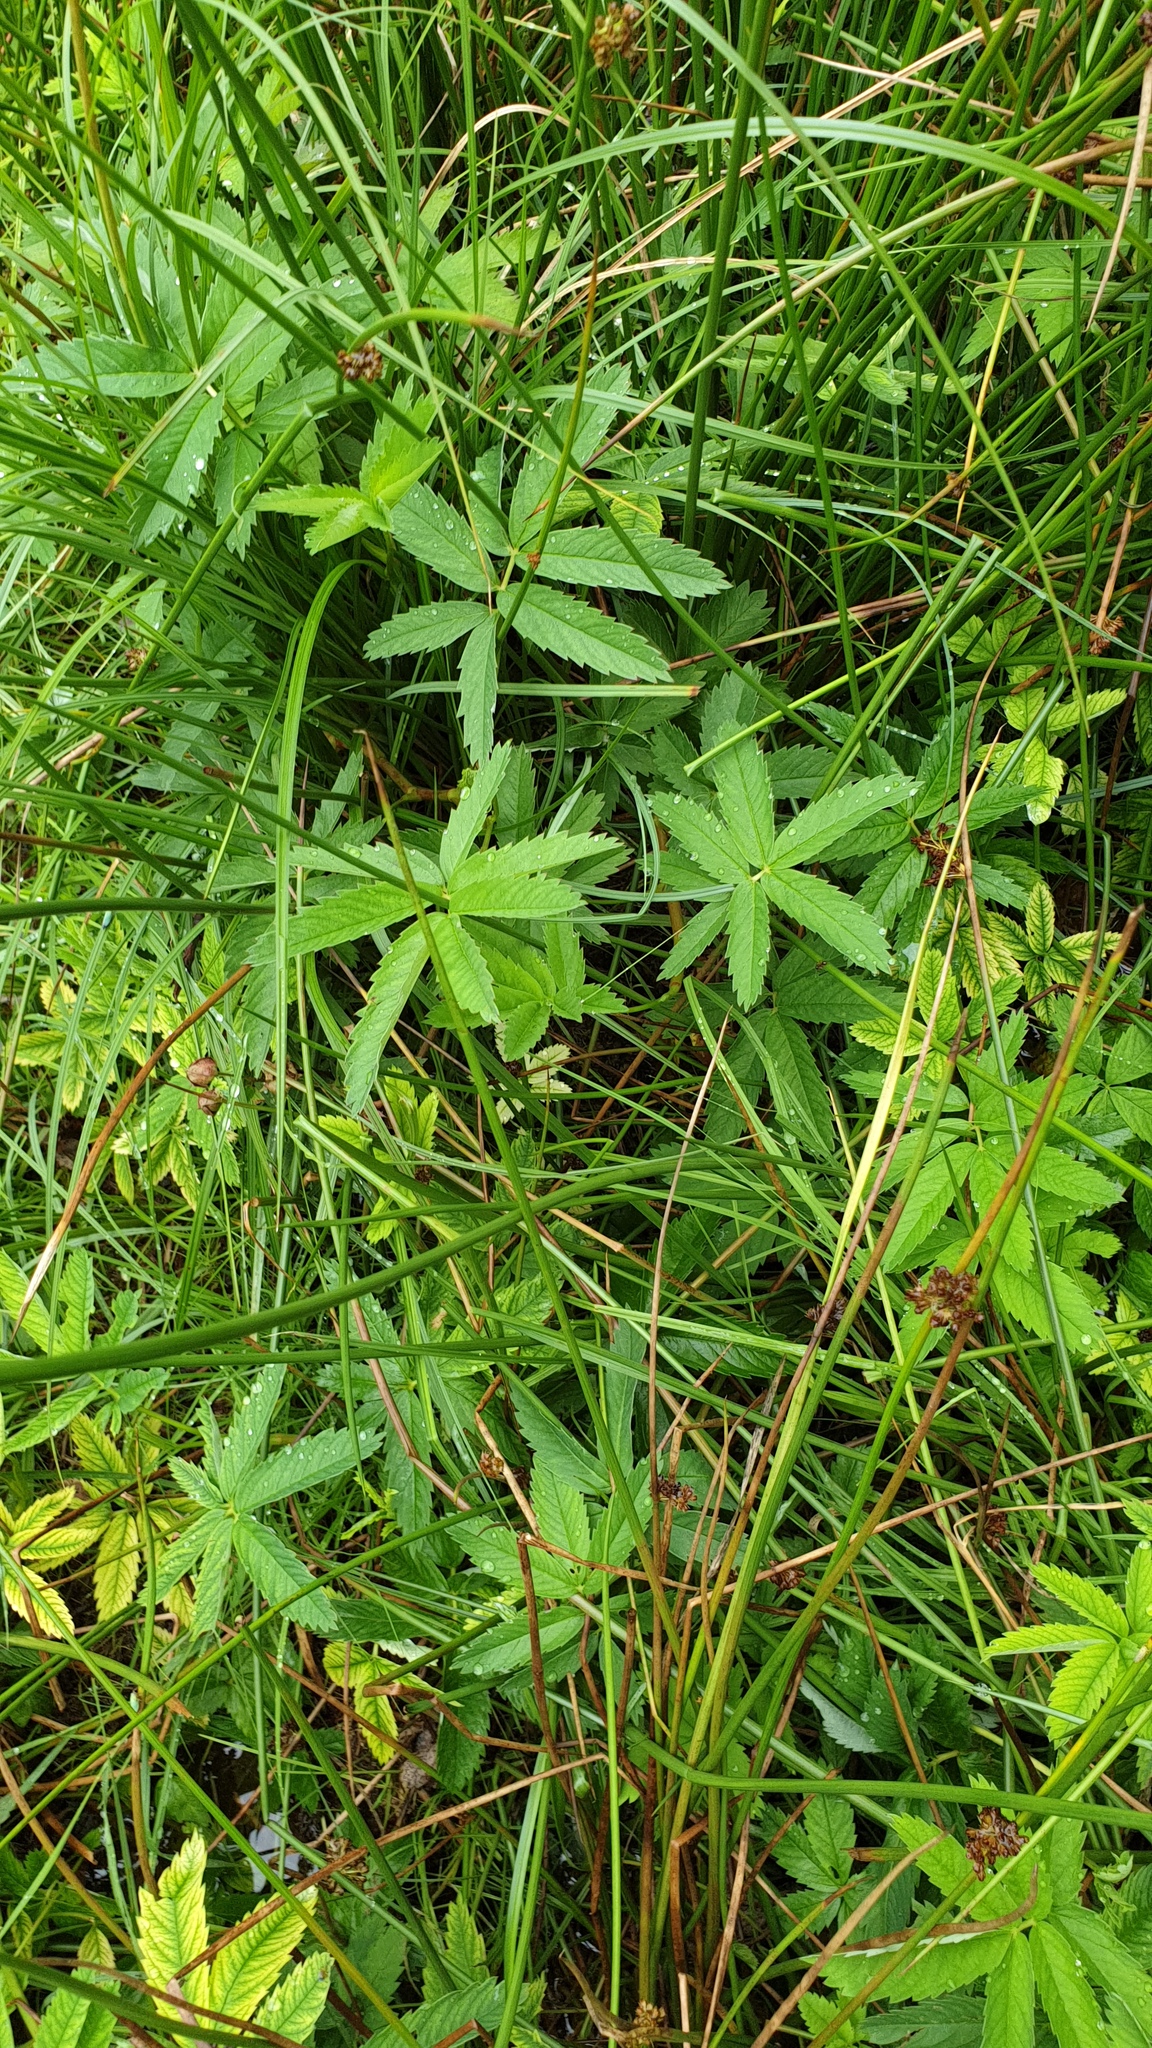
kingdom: Plantae
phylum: Tracheophyta
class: Magnoliopsida
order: Rosales
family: Rosaceae
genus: Comarum
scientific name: Comarum palustre
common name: Marsh cinquefoil
